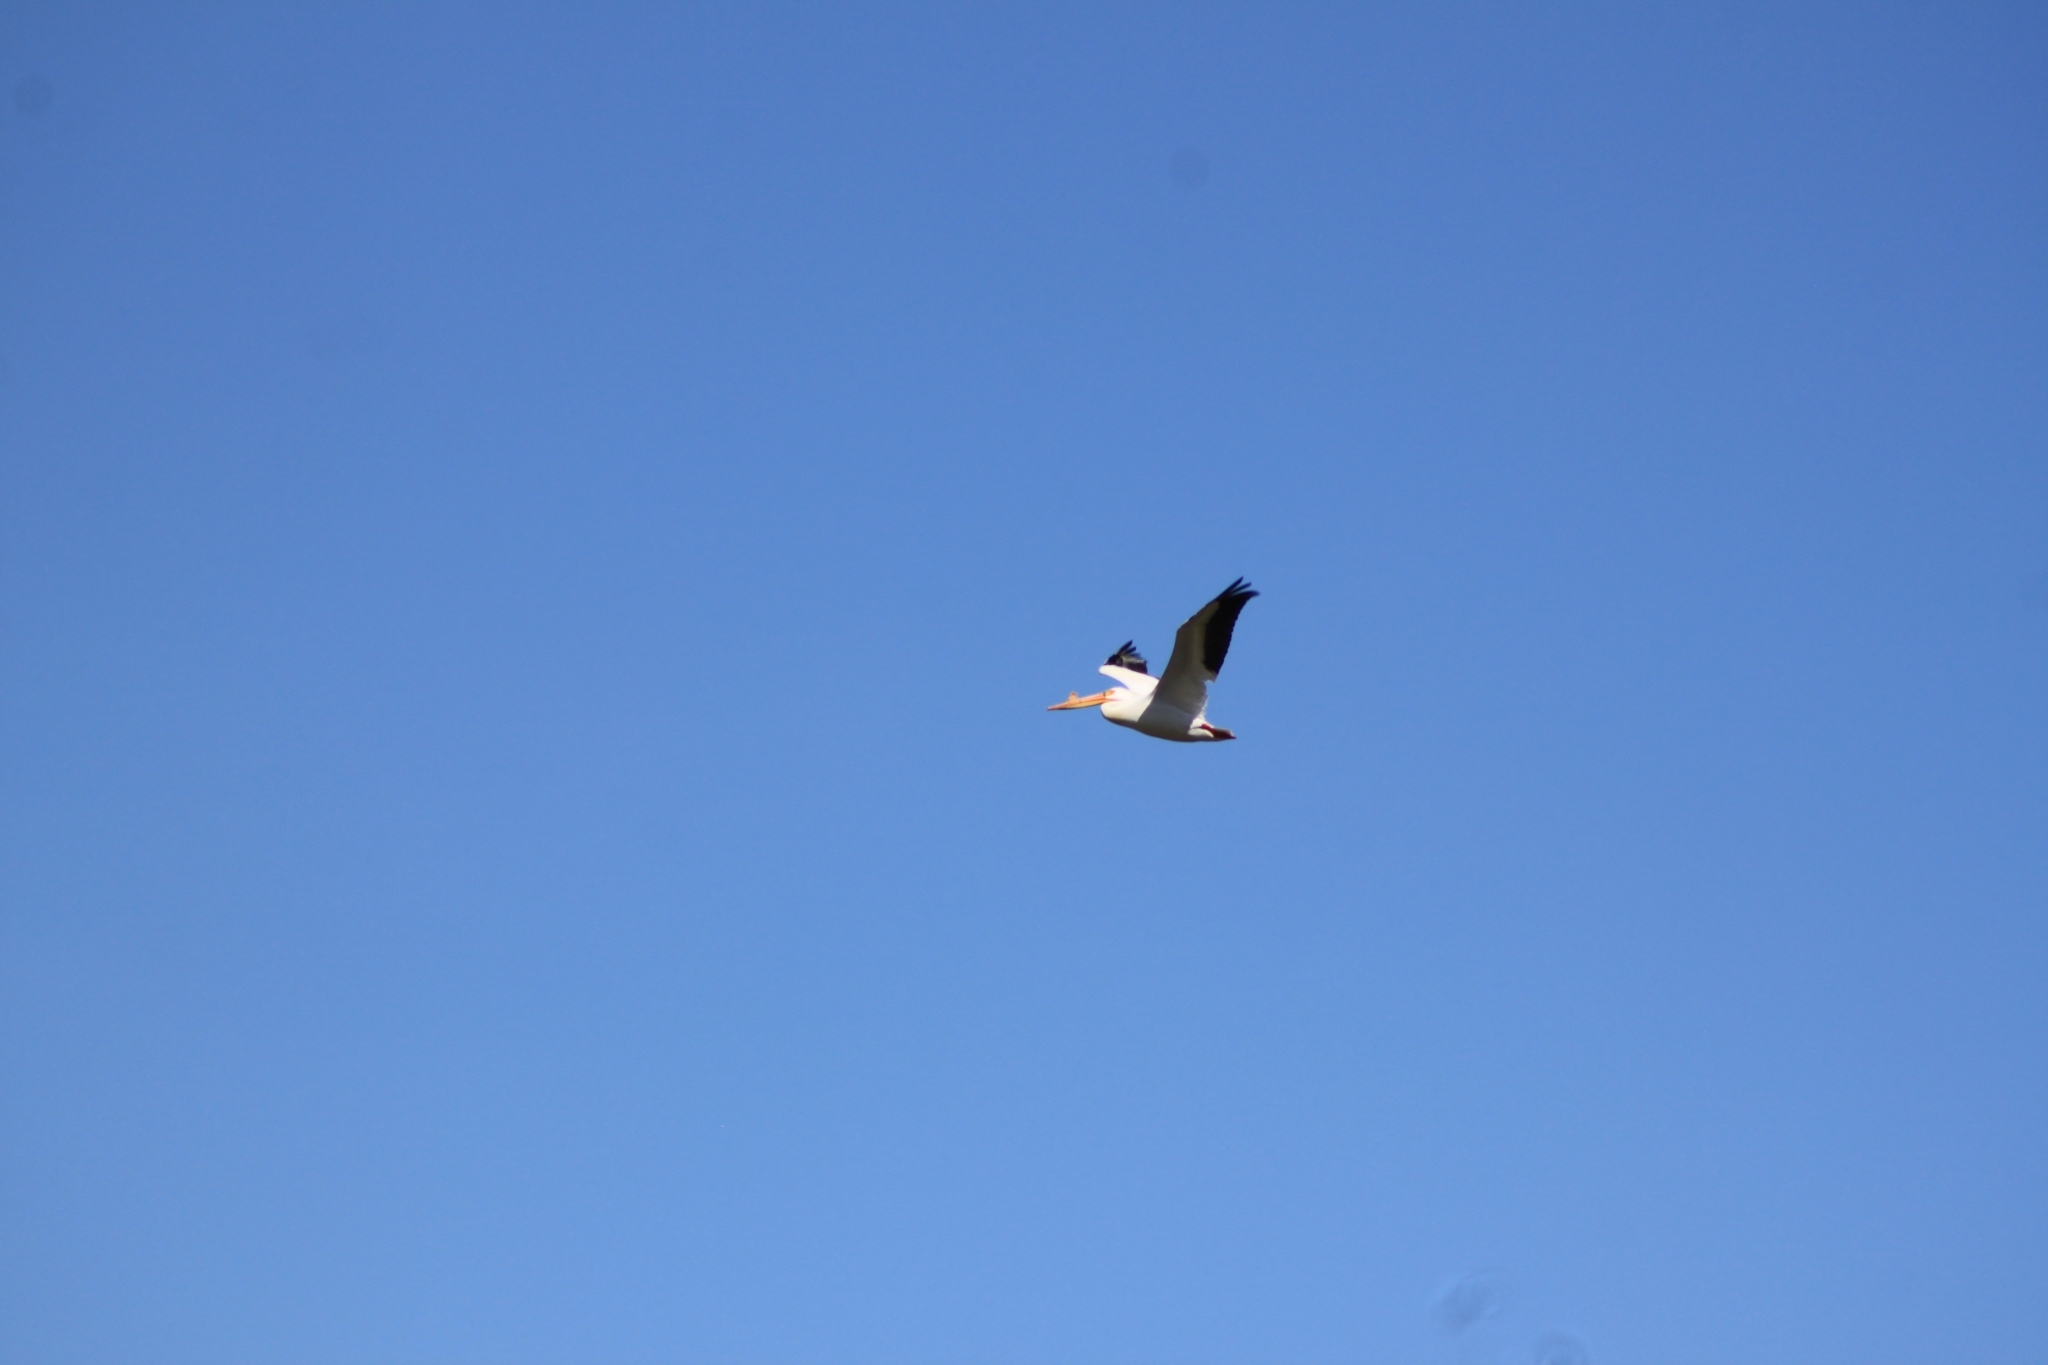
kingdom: Animalia
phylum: Chordata
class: Aves
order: Pelecaniformes
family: Pelecanidae
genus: Pelecanus
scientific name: Pelecanus erythrorhynchos
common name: American white pelican
